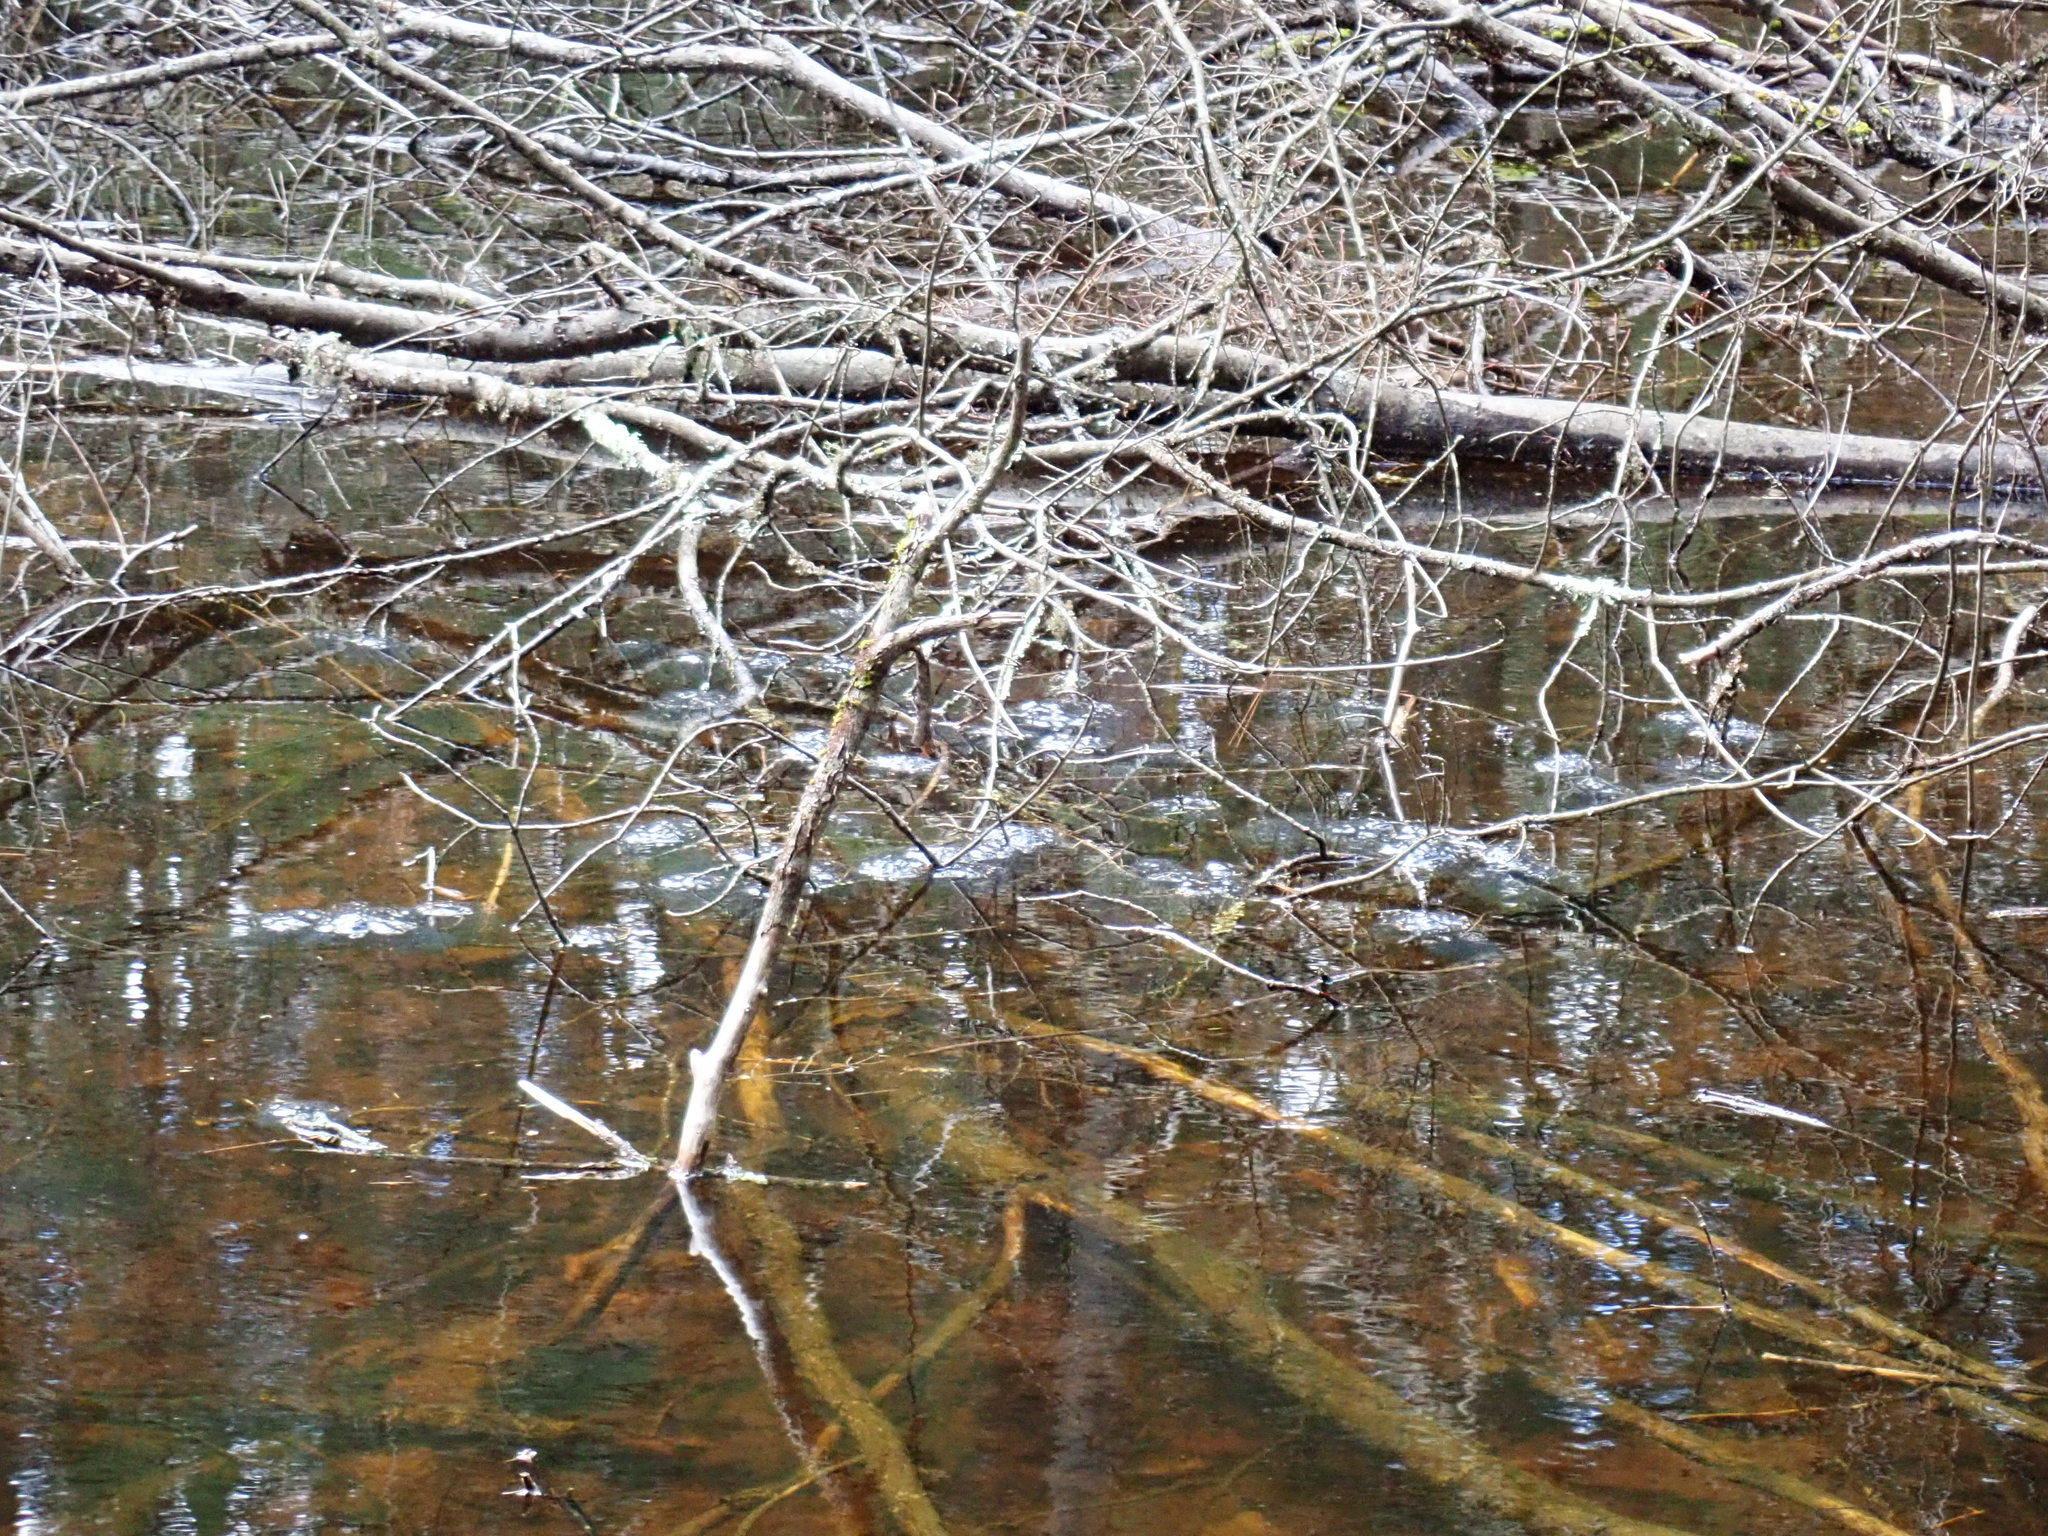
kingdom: Animalia
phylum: Chordata
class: Amphibia
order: Anura
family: Ranidae
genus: Lithobates
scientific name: Lithobates sylvaticus
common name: Wood frog
